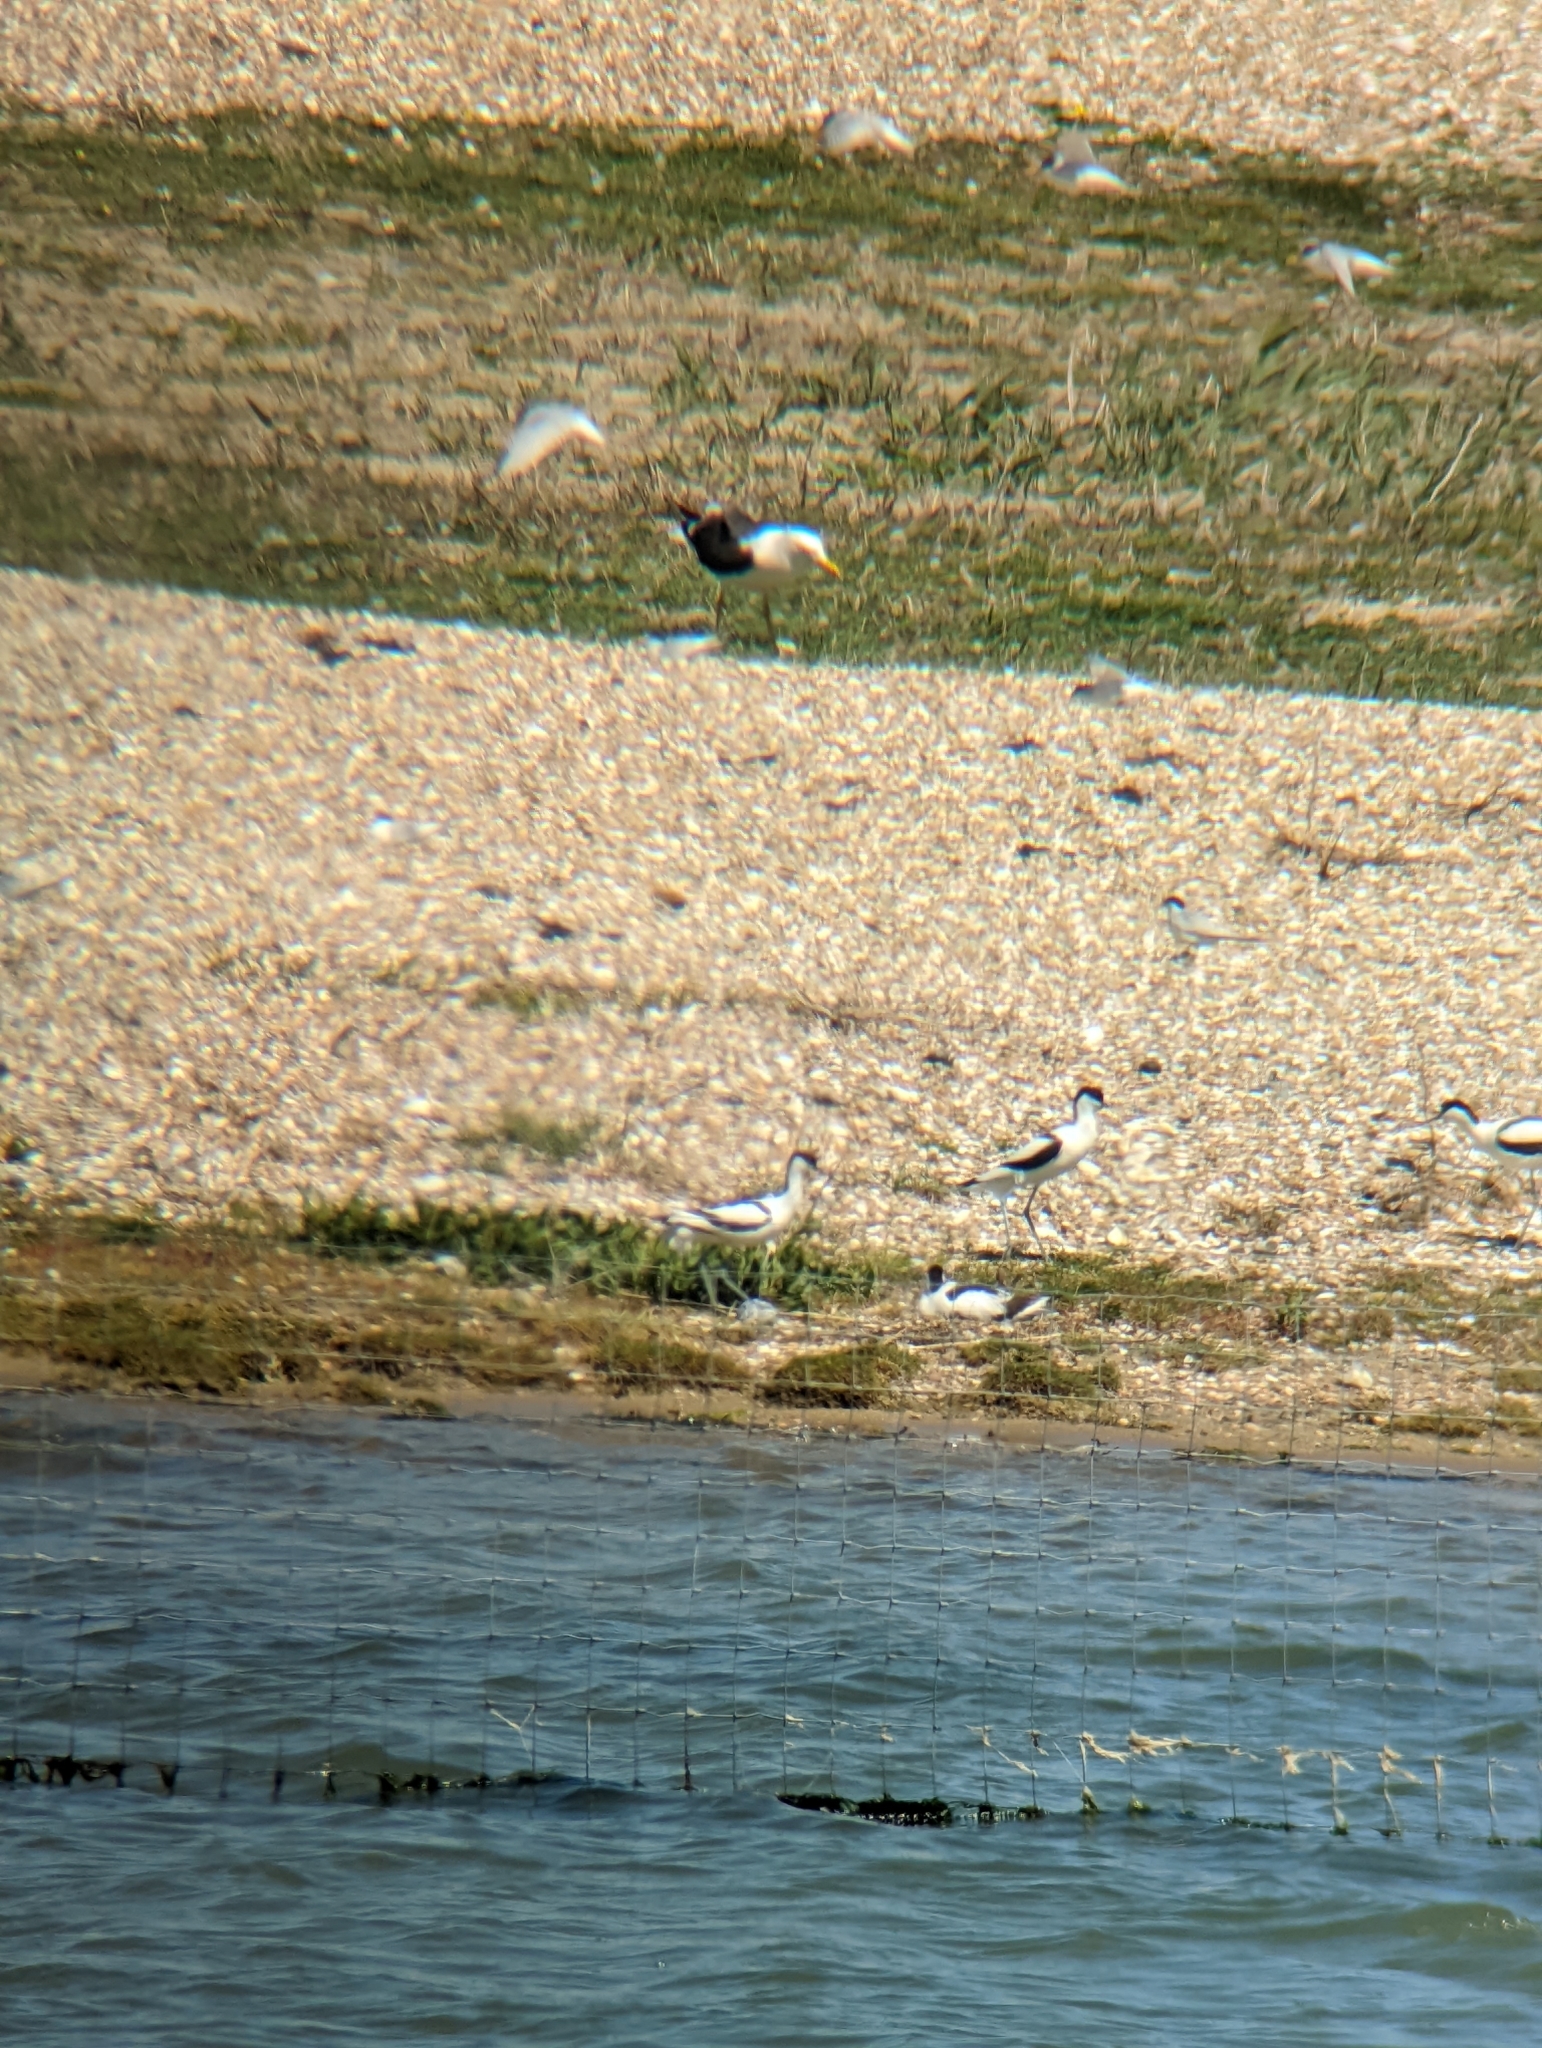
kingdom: Animalia
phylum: Chordata
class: Aves
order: Charadriiformes
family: Recurvirostridae
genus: Recurvirostra
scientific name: Recurvirostra avosetta
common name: Pied avocet
